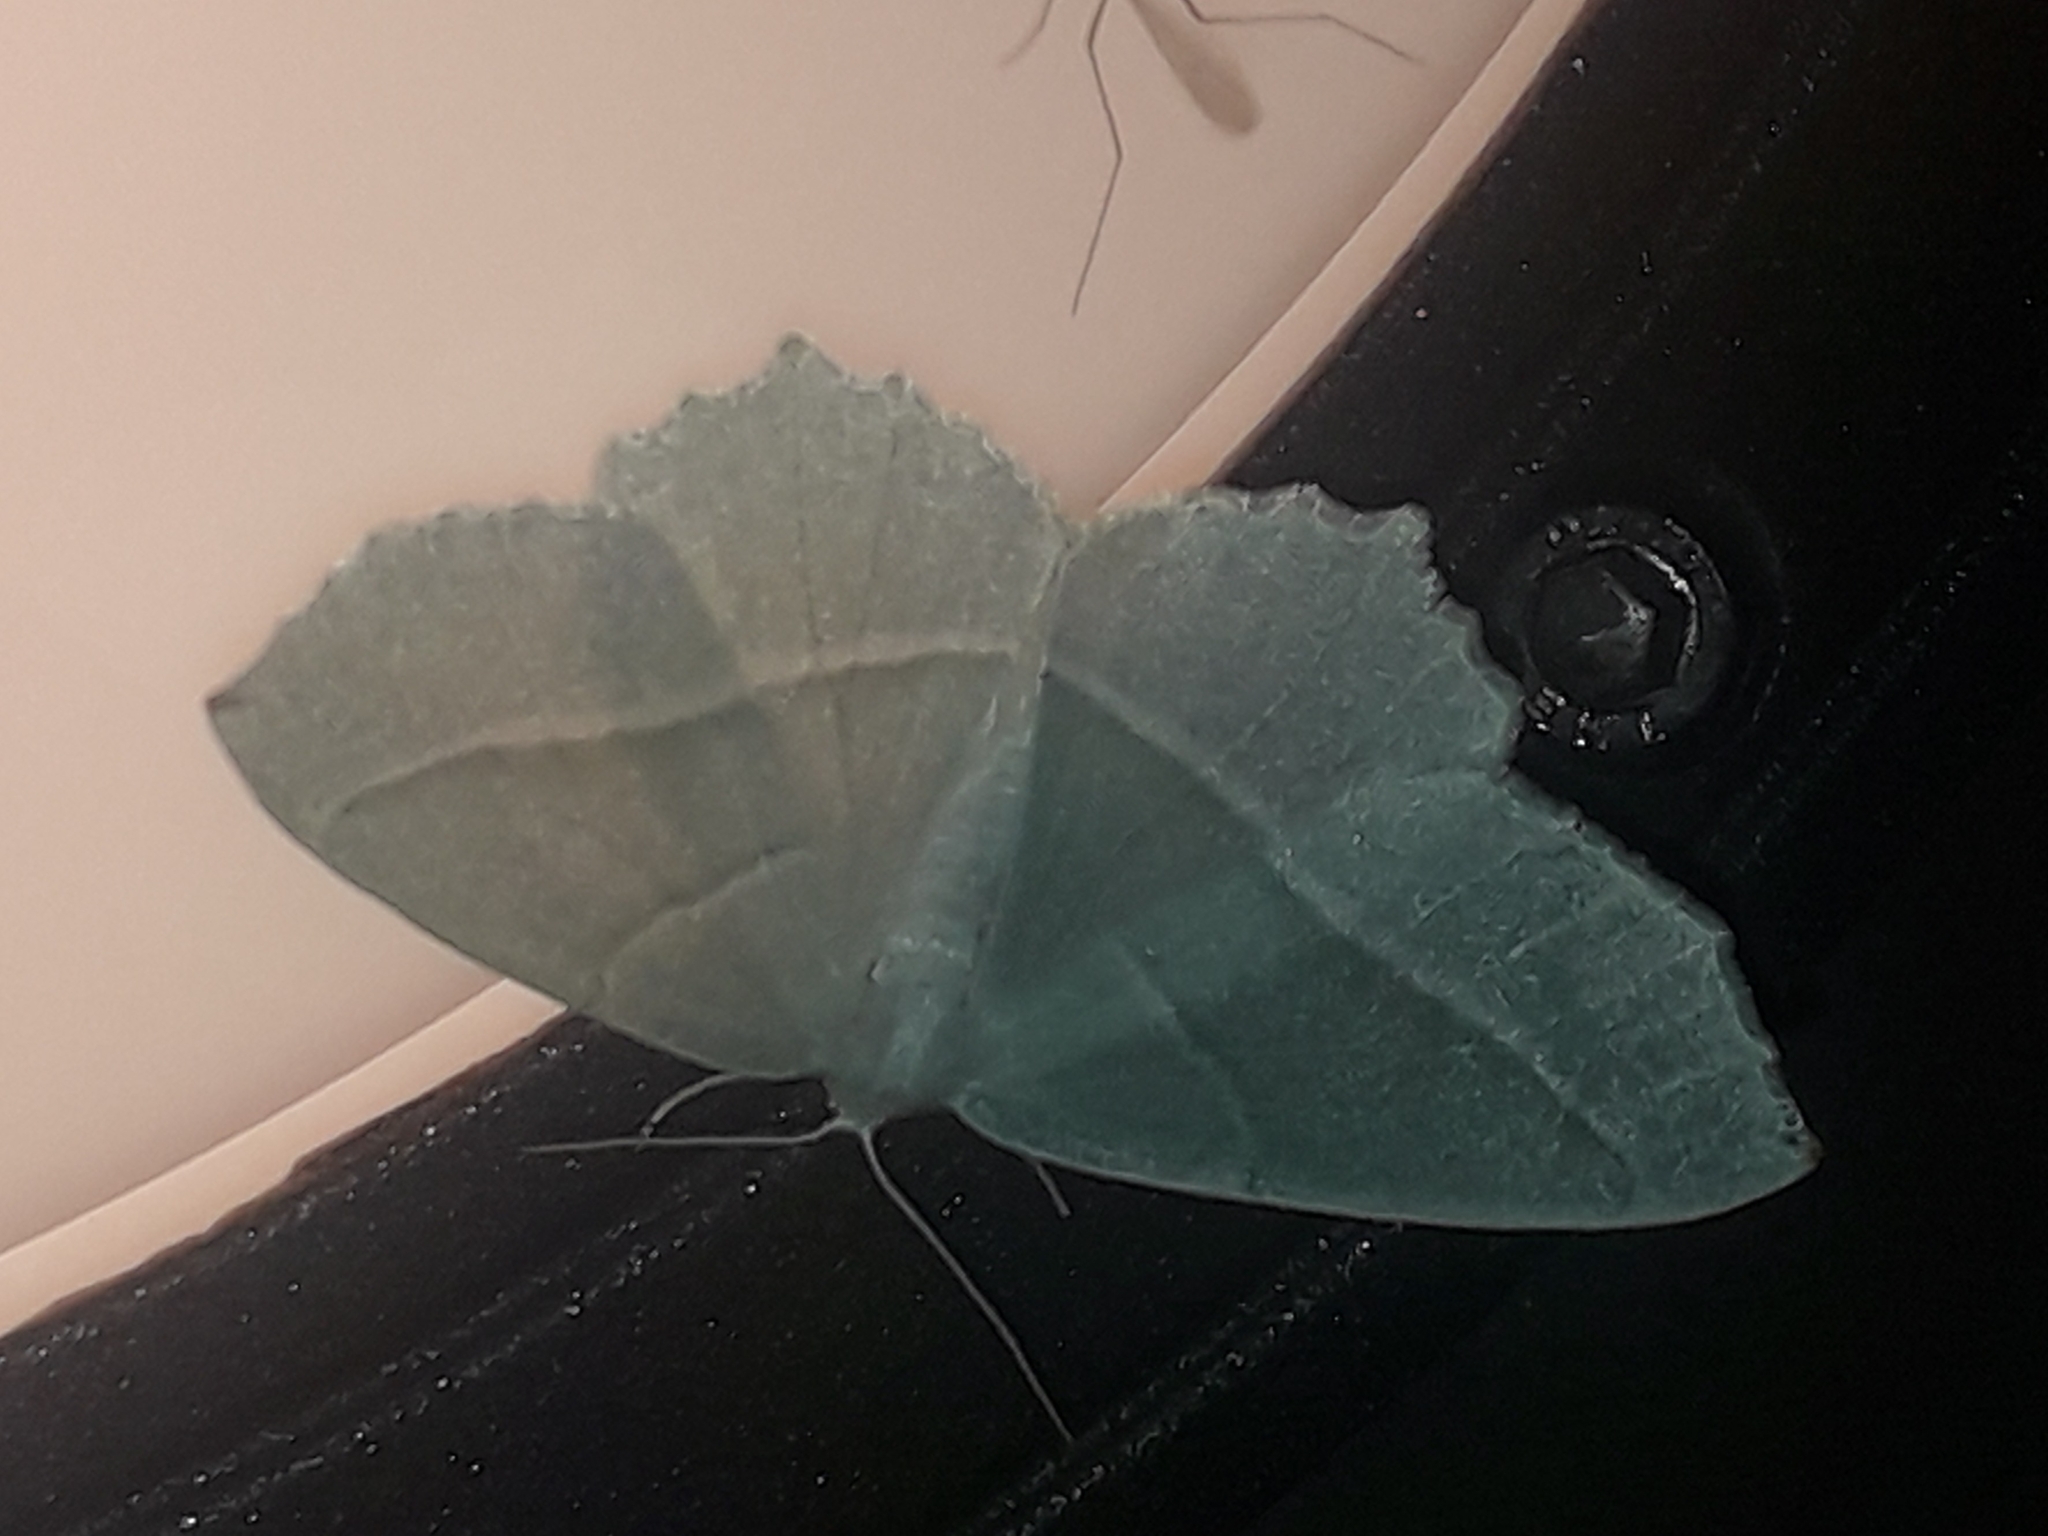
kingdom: Animalia
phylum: Arthropoda
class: Insecta
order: Lepidoptera
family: Geometridae
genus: Campaea
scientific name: Campaea margaritaria
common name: Light emerald
